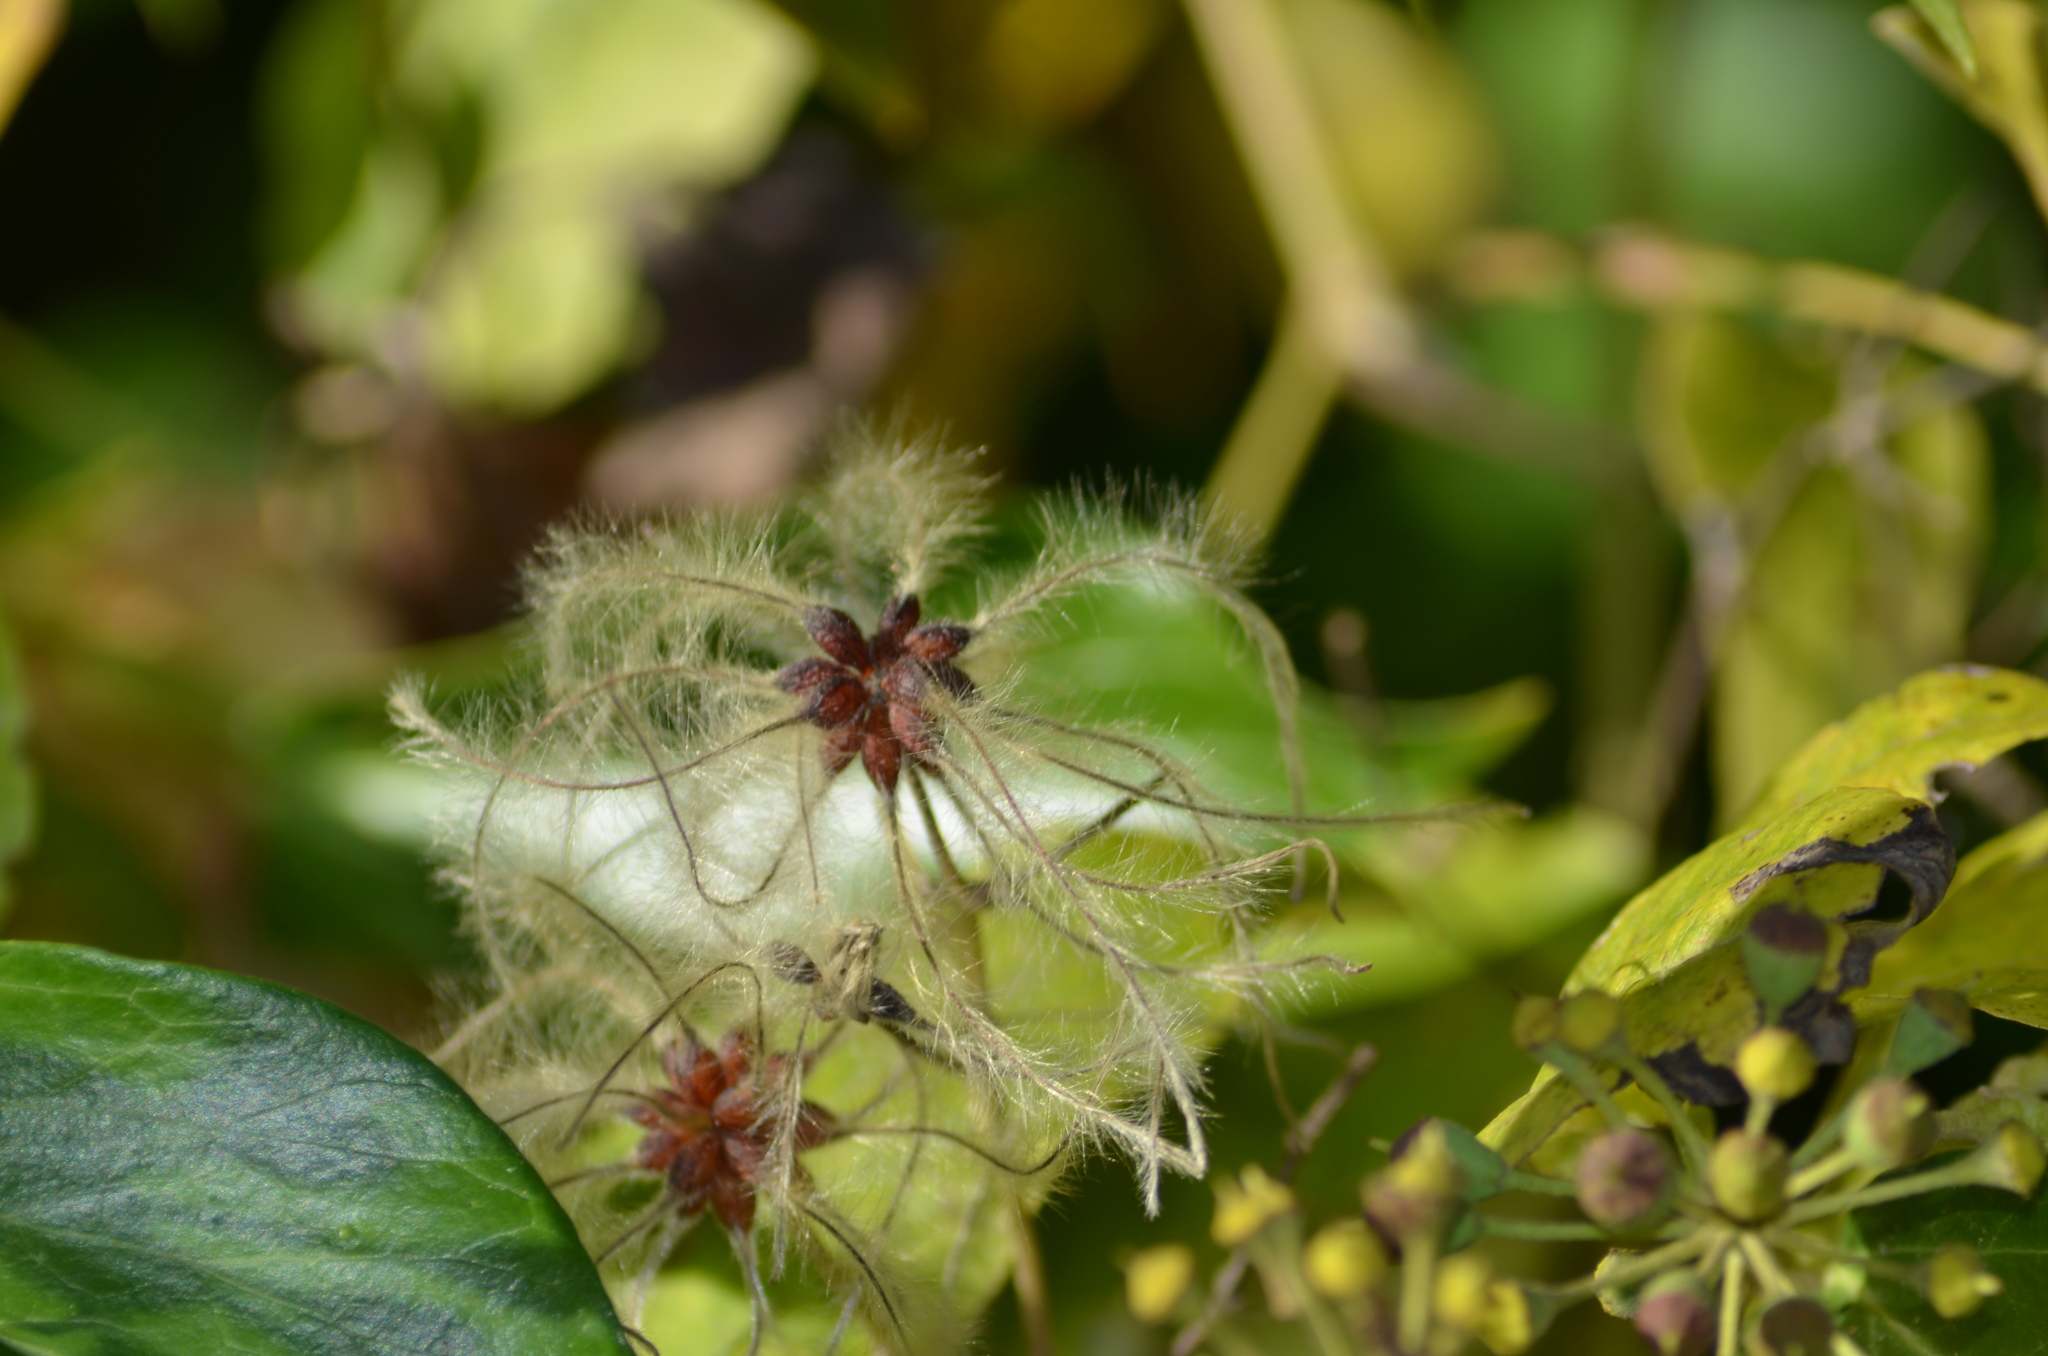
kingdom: Plantae
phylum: Tracheophyta
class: Magnoliopsida
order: Ranunculales
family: Ranunculaceae
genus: Clematis
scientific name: Clematis vitalba
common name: Evergreen clematis
